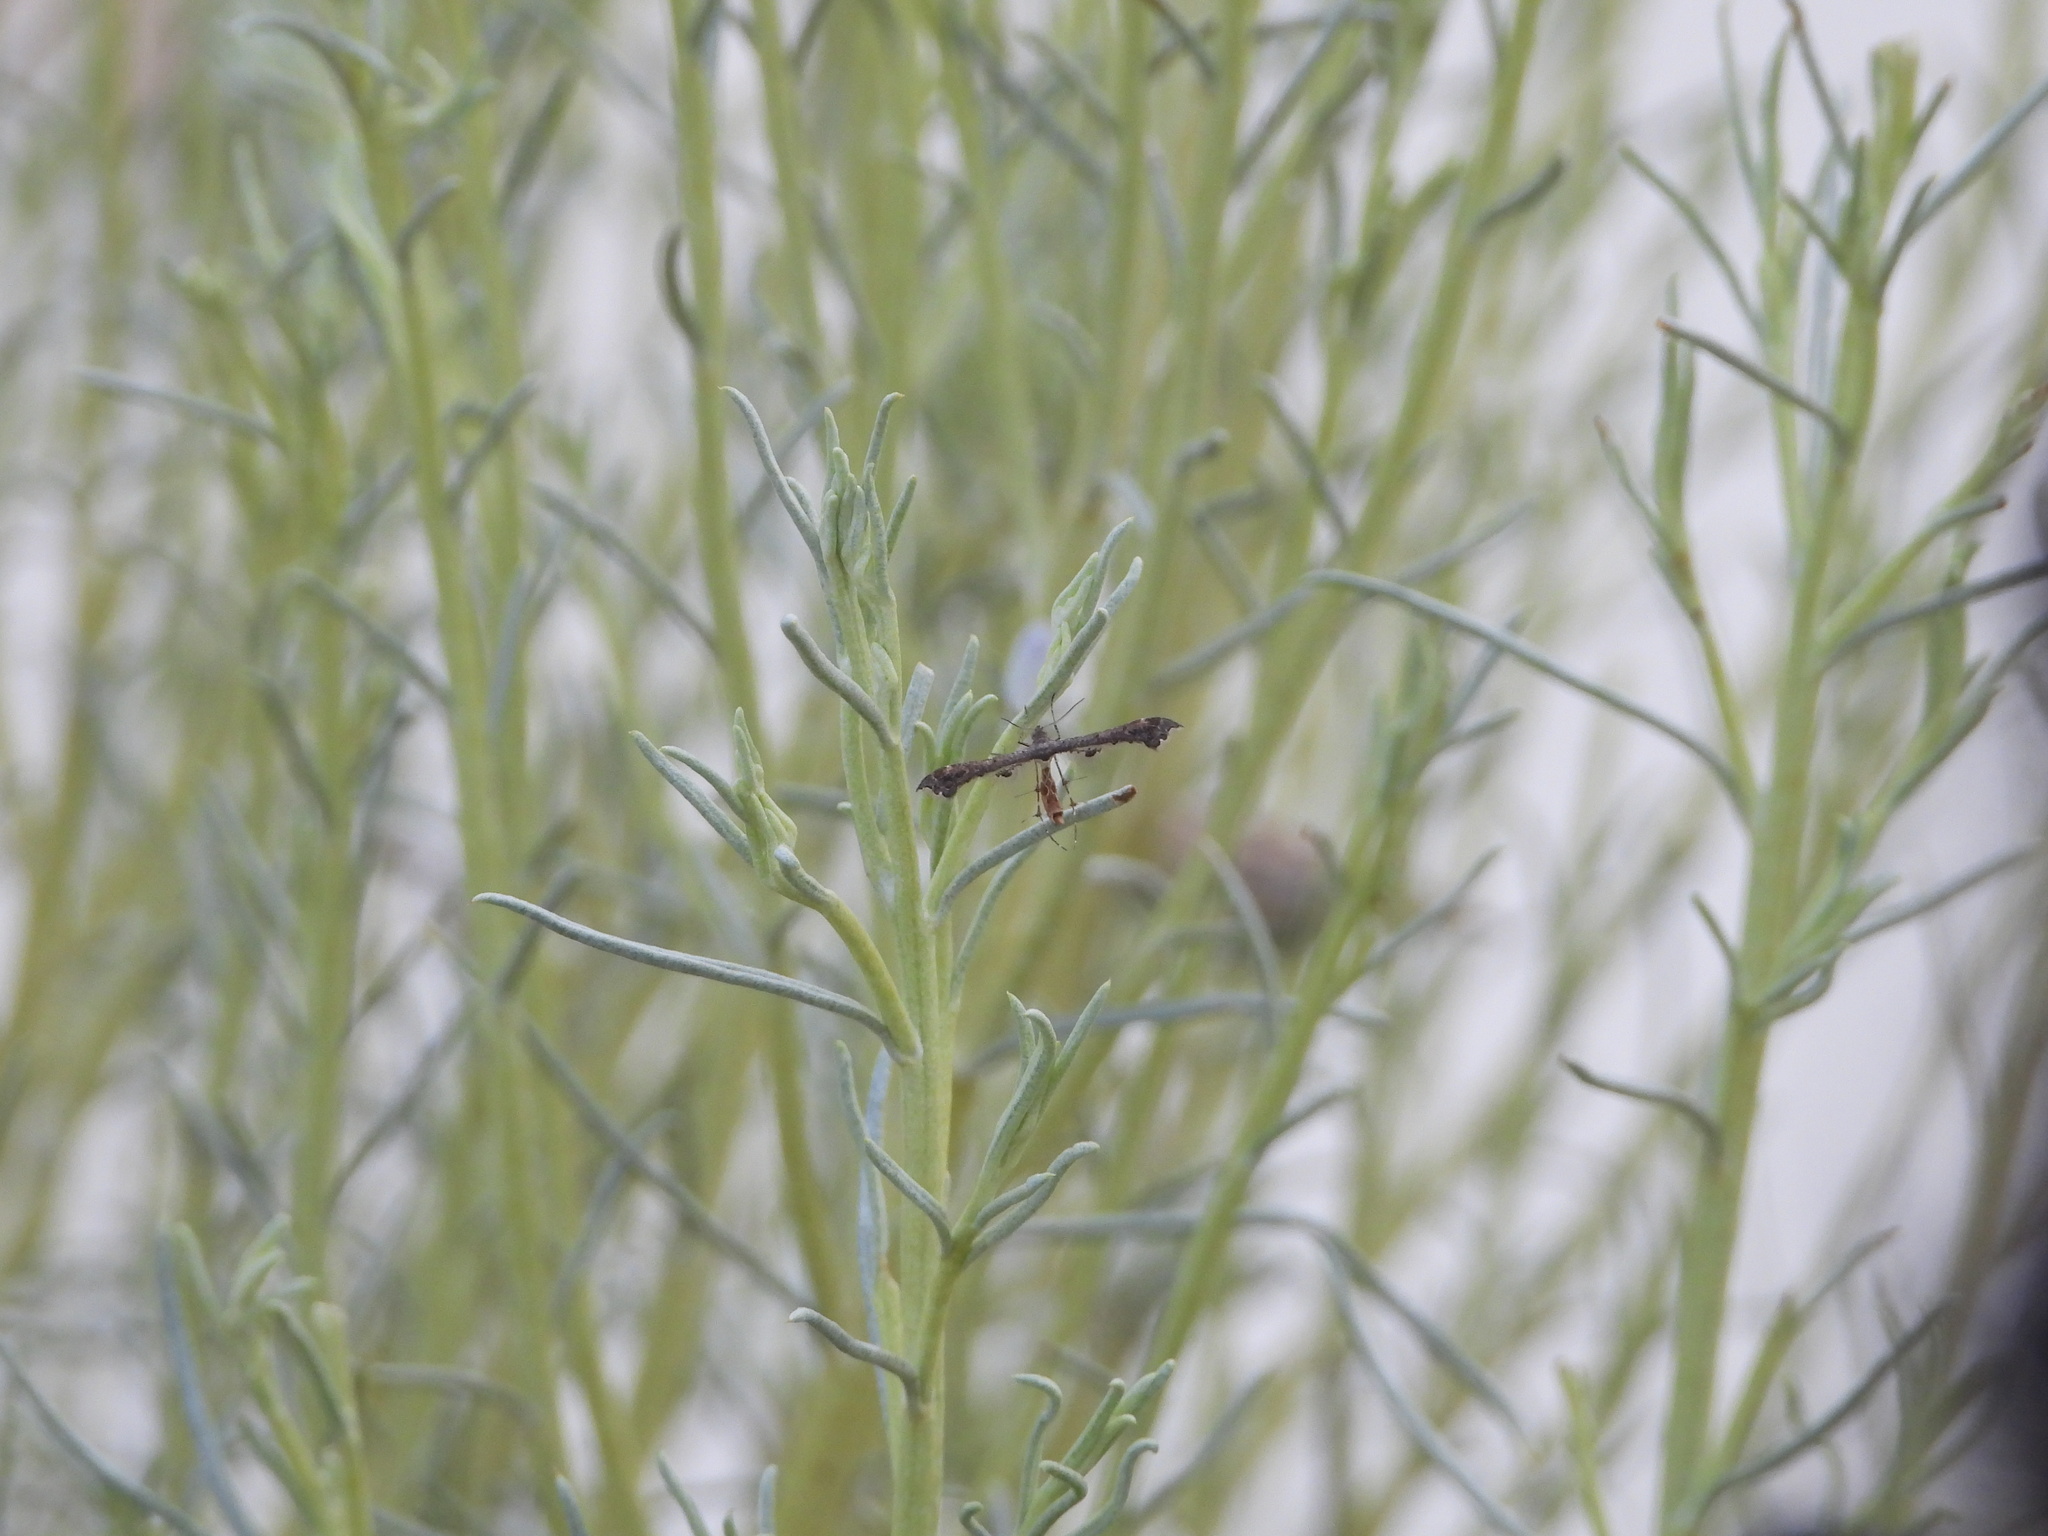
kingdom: Animalia
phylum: Arthropoda
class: Insecta
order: Lepidoptera
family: Pterophoridae
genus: Michaelophorus
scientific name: Michaelophorus indentatus
